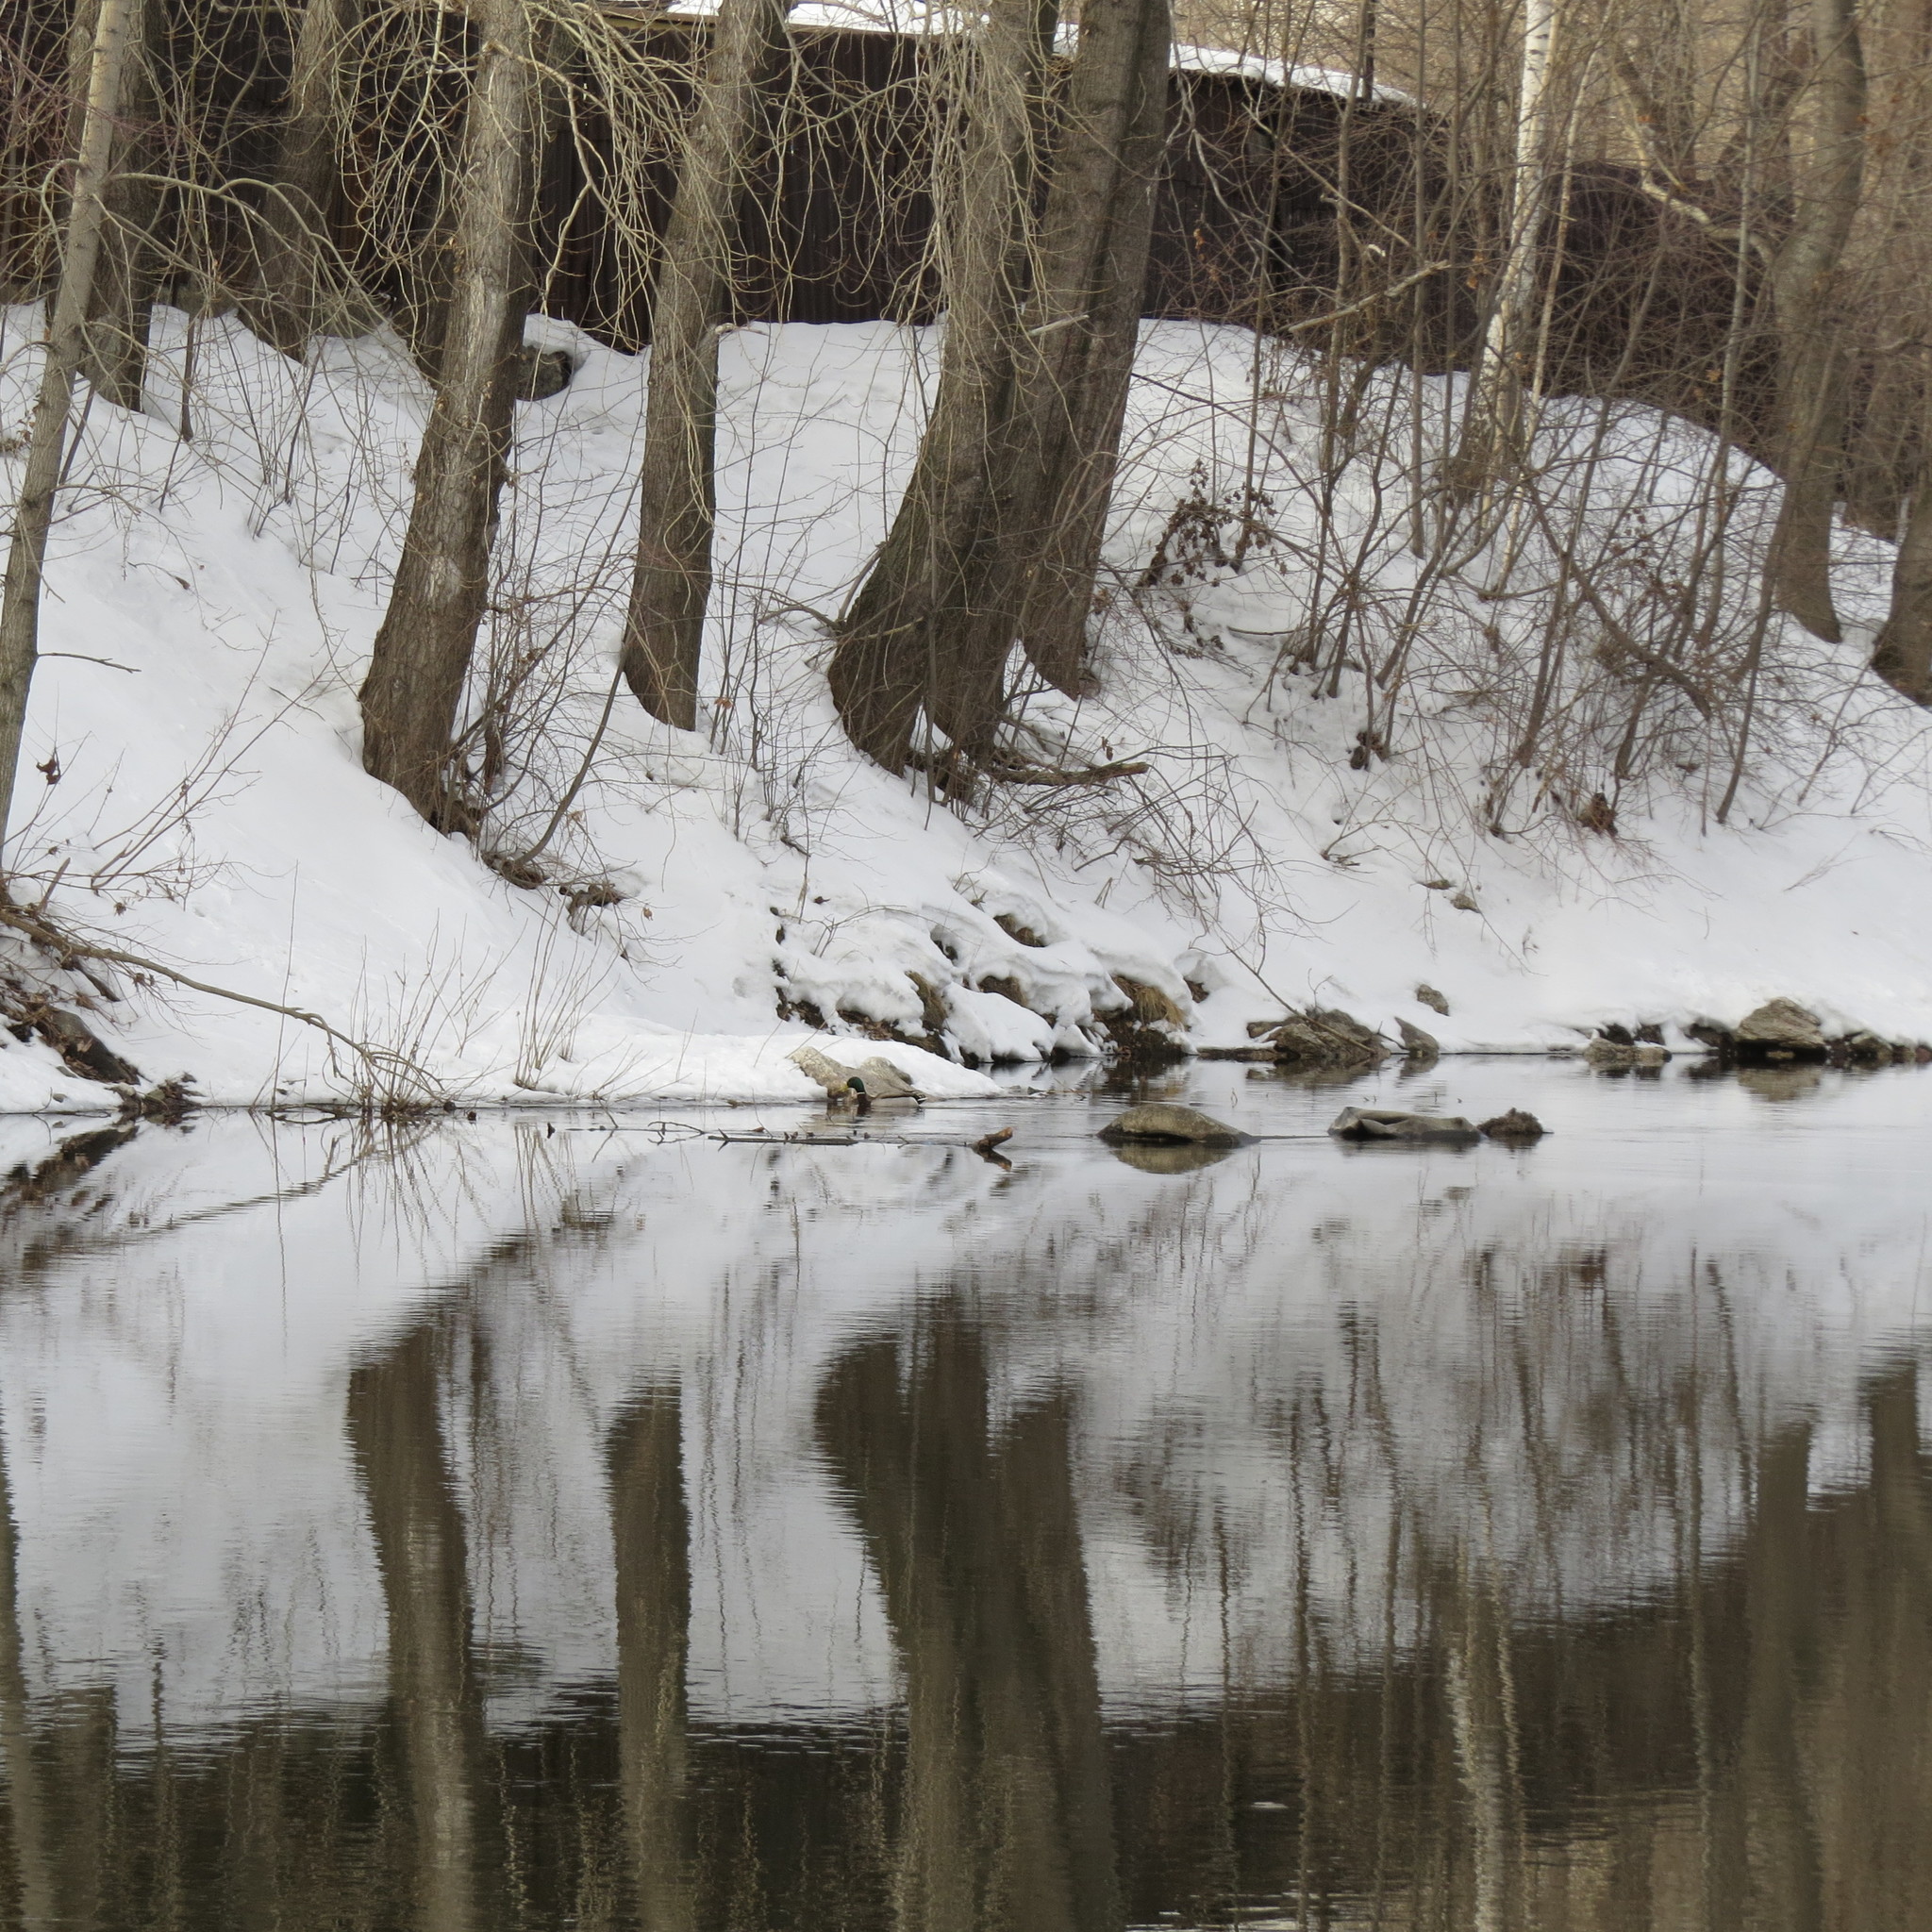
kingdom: Animalia
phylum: Chordata
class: Aves
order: Anseriformes
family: Anatidae
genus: Anas
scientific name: Anas platyrhynchos
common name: Mallard
